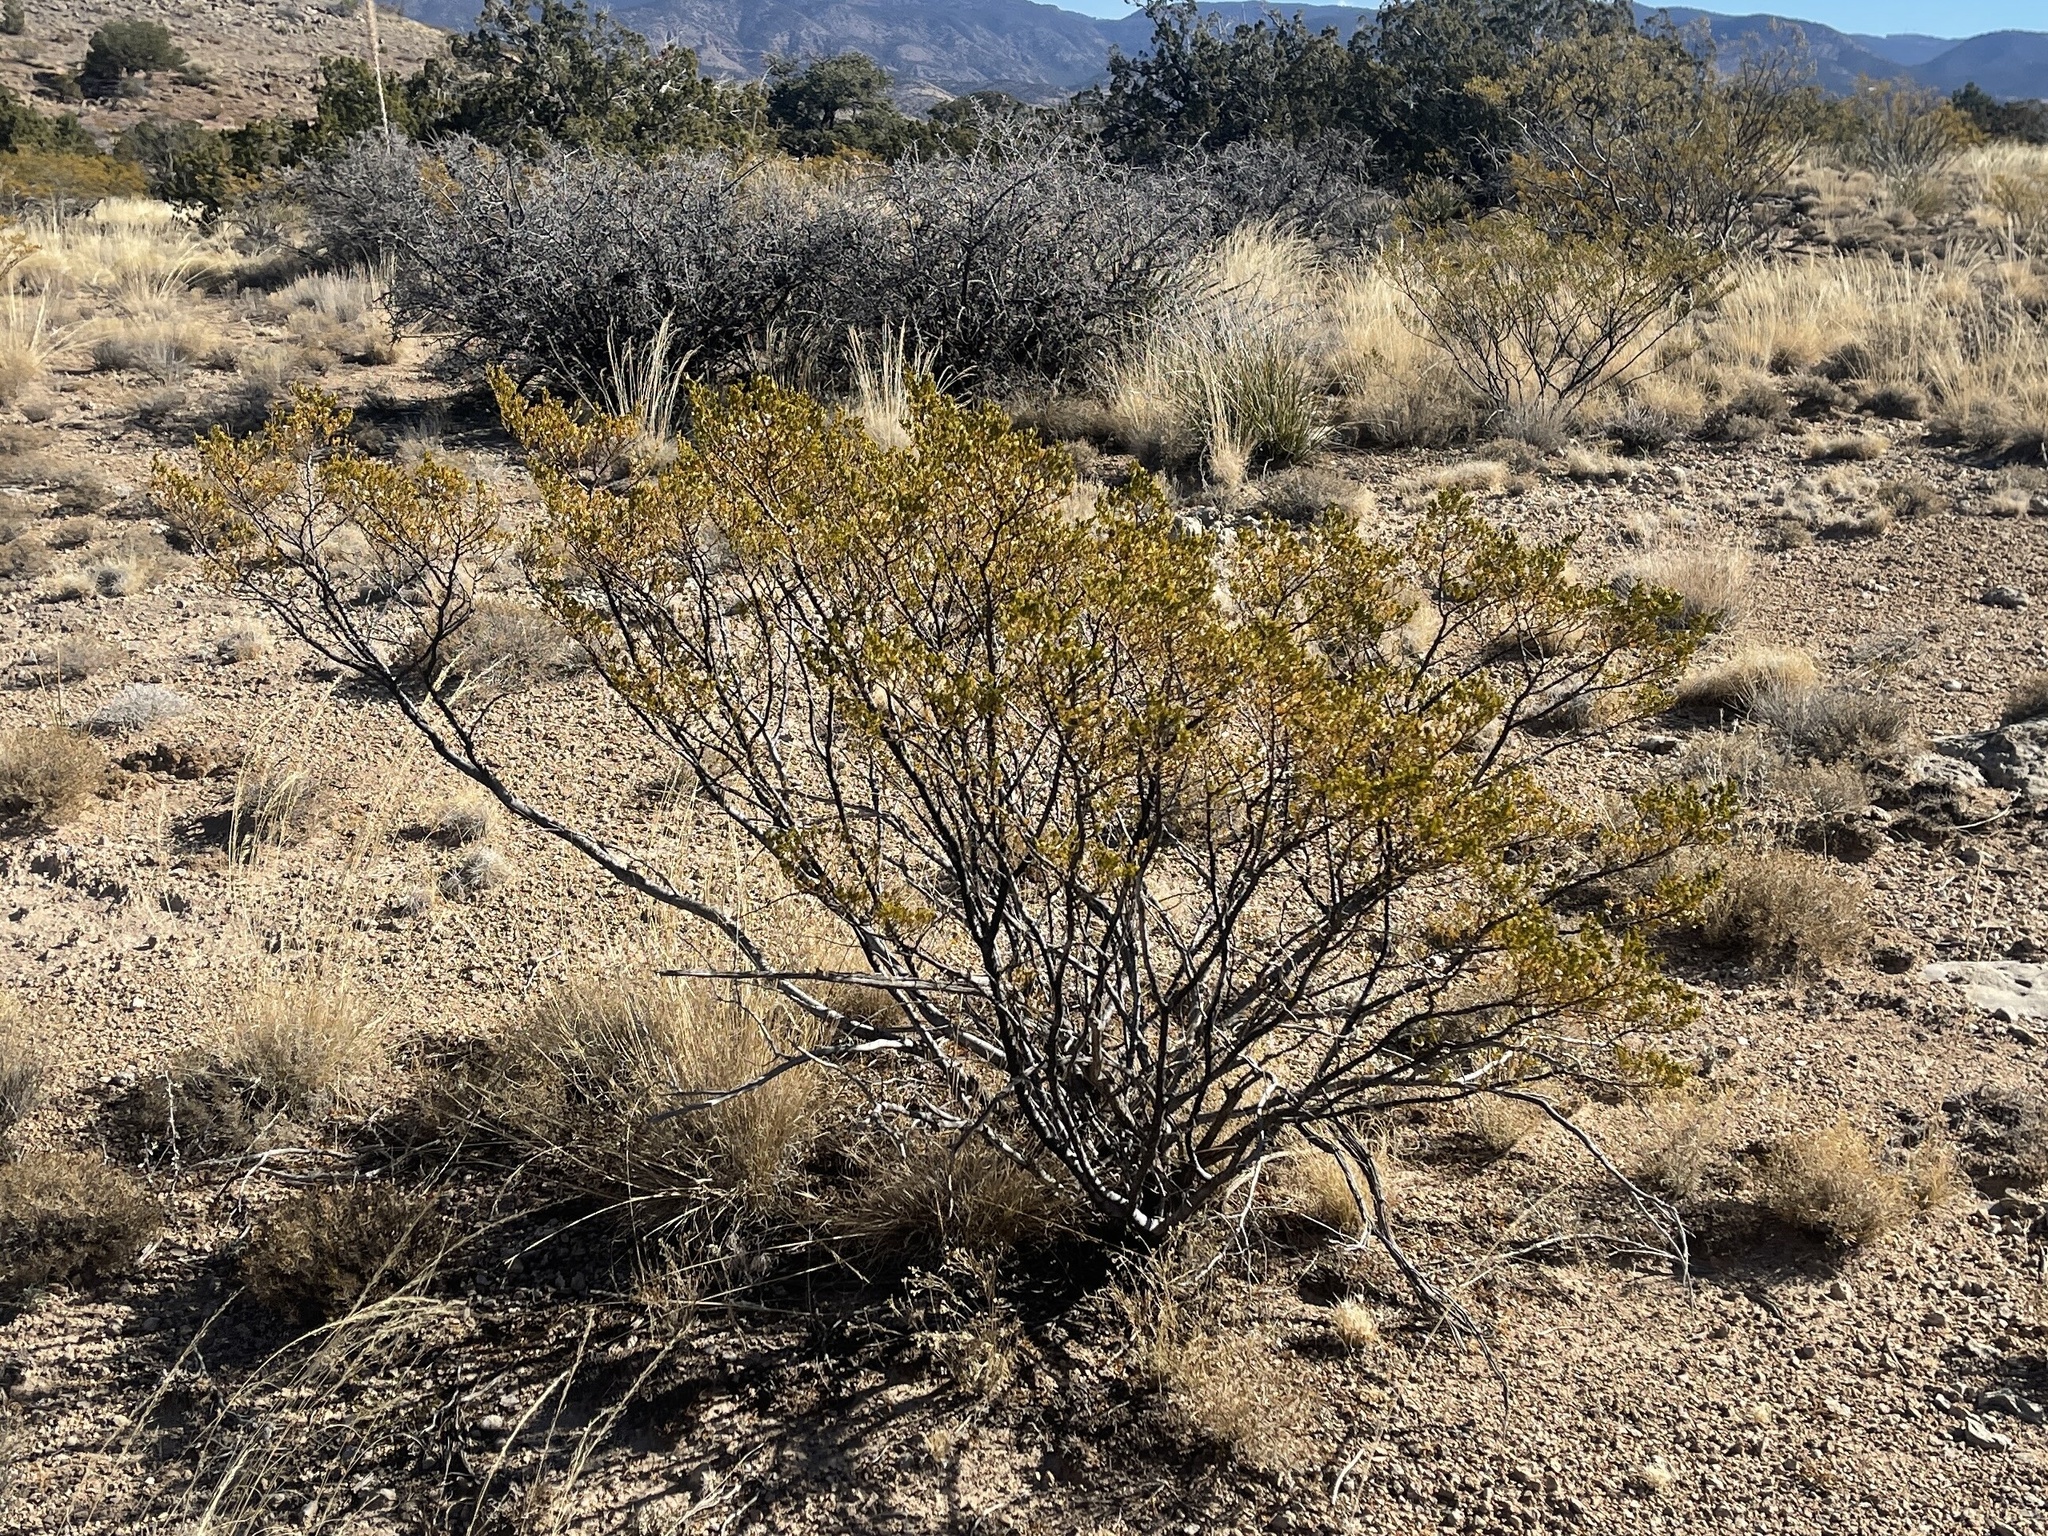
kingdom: Plantae
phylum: Tracheophyta
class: Magnoliopsida
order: Zygophyllales
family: Zygophyllaceae
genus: Larrea
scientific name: Larrea tridentata
